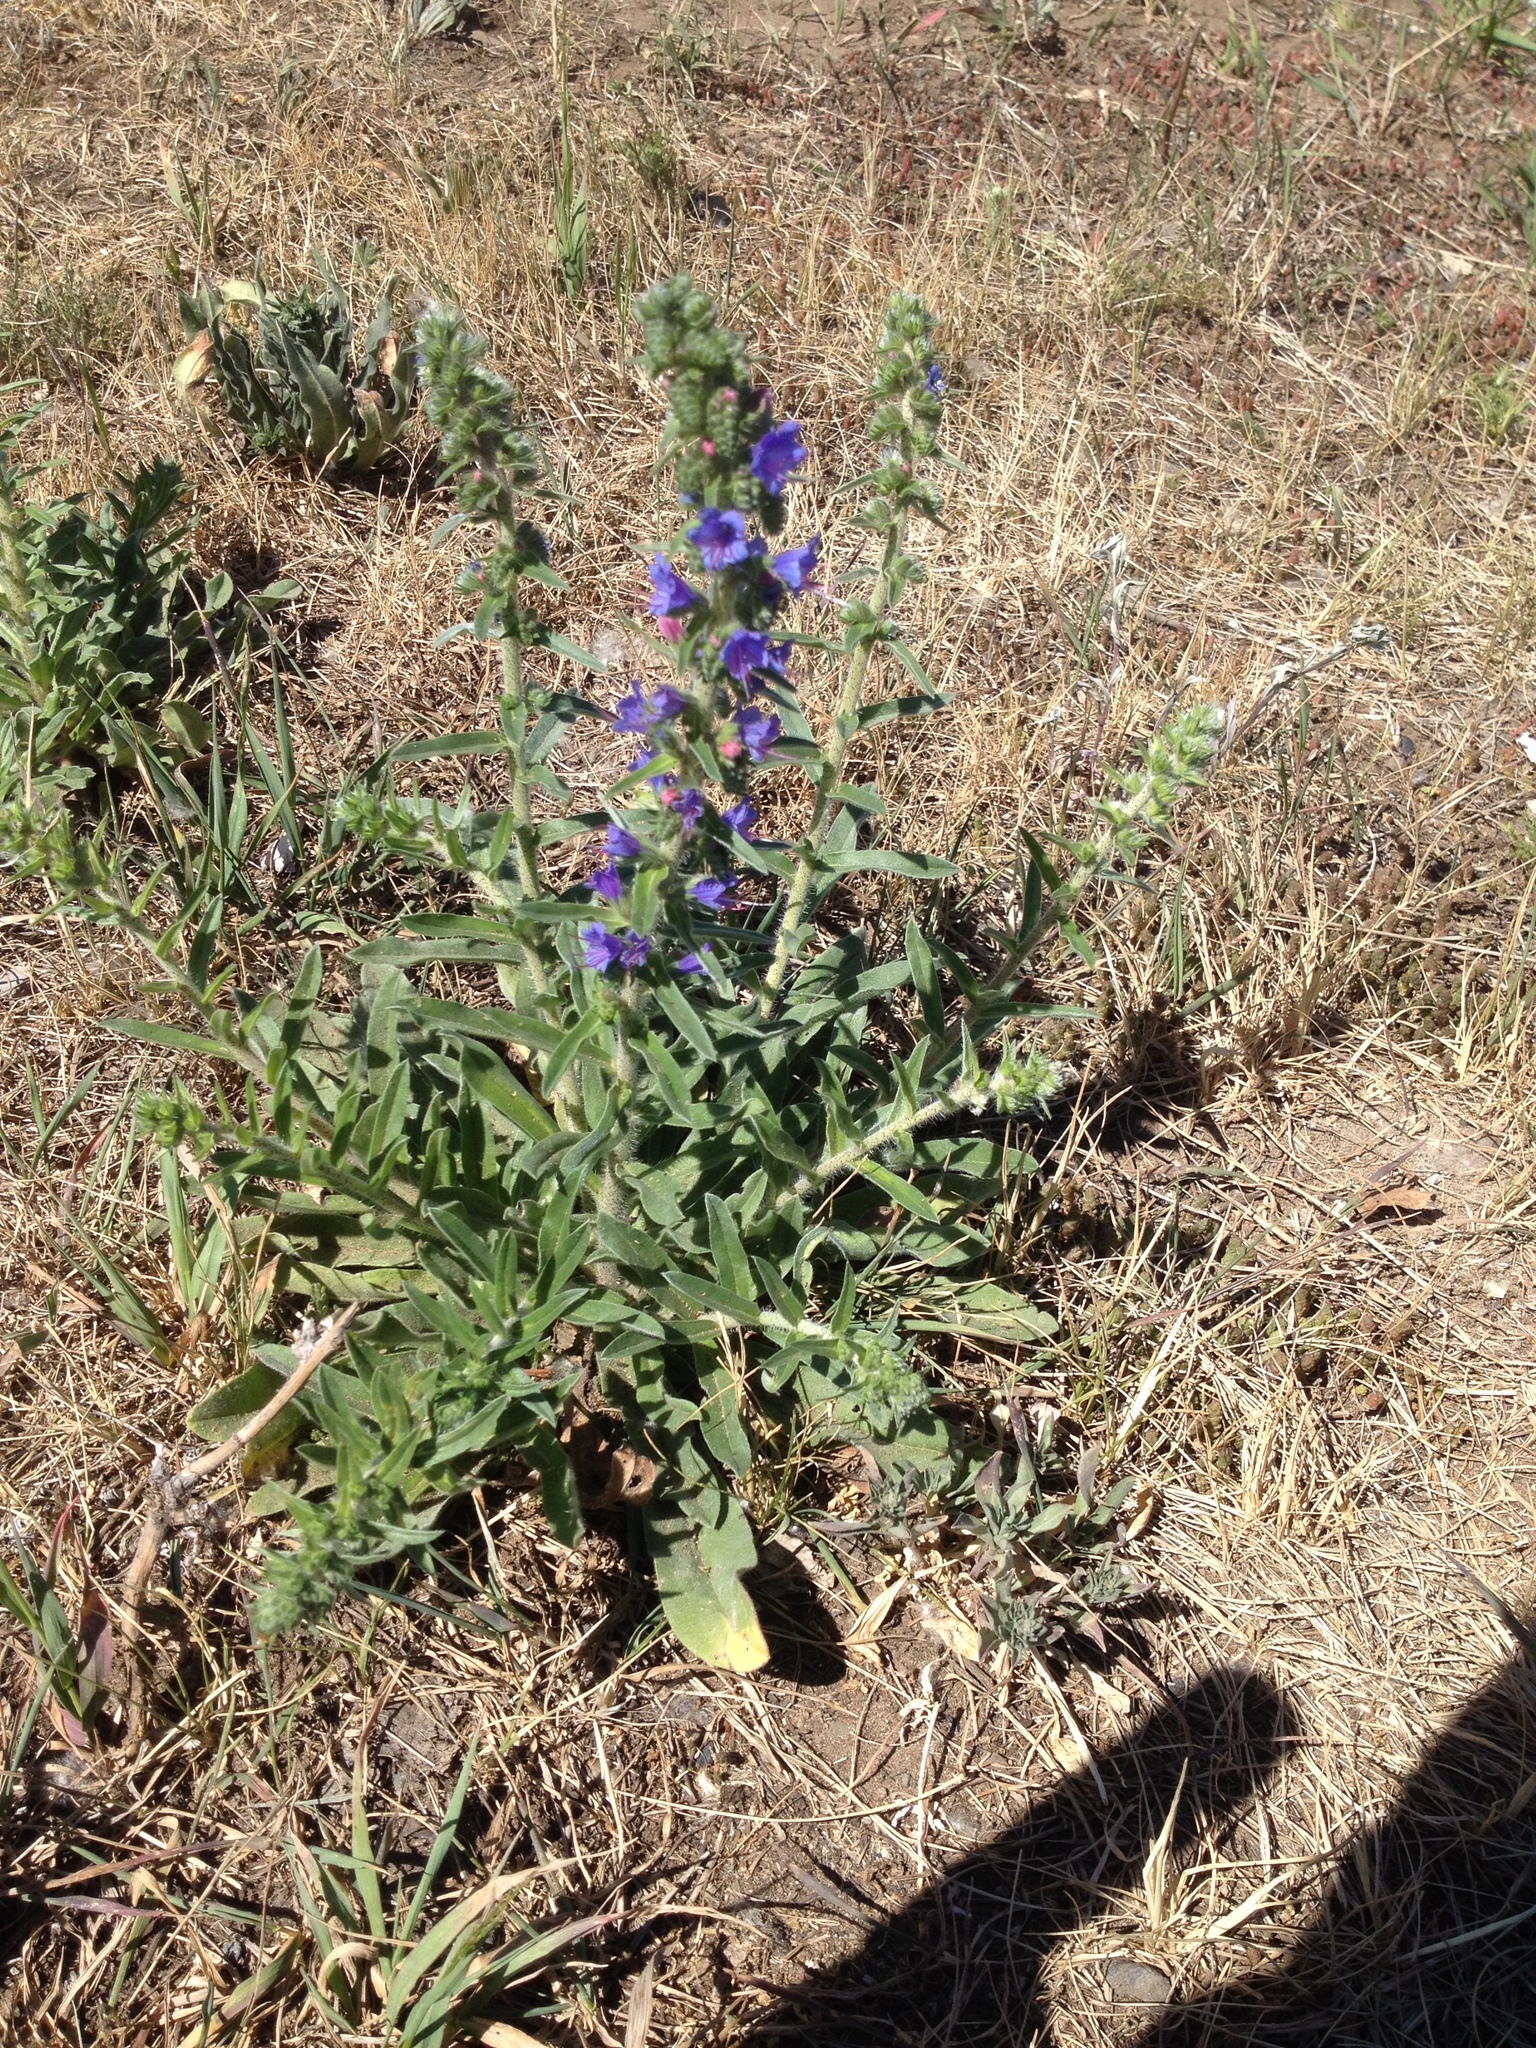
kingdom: Plantae
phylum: Tracheophyta
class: Magnoliopsida
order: Boraginales
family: Boraginaceae
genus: Echium
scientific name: Echium vulgare
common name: Common viper's bugloss
